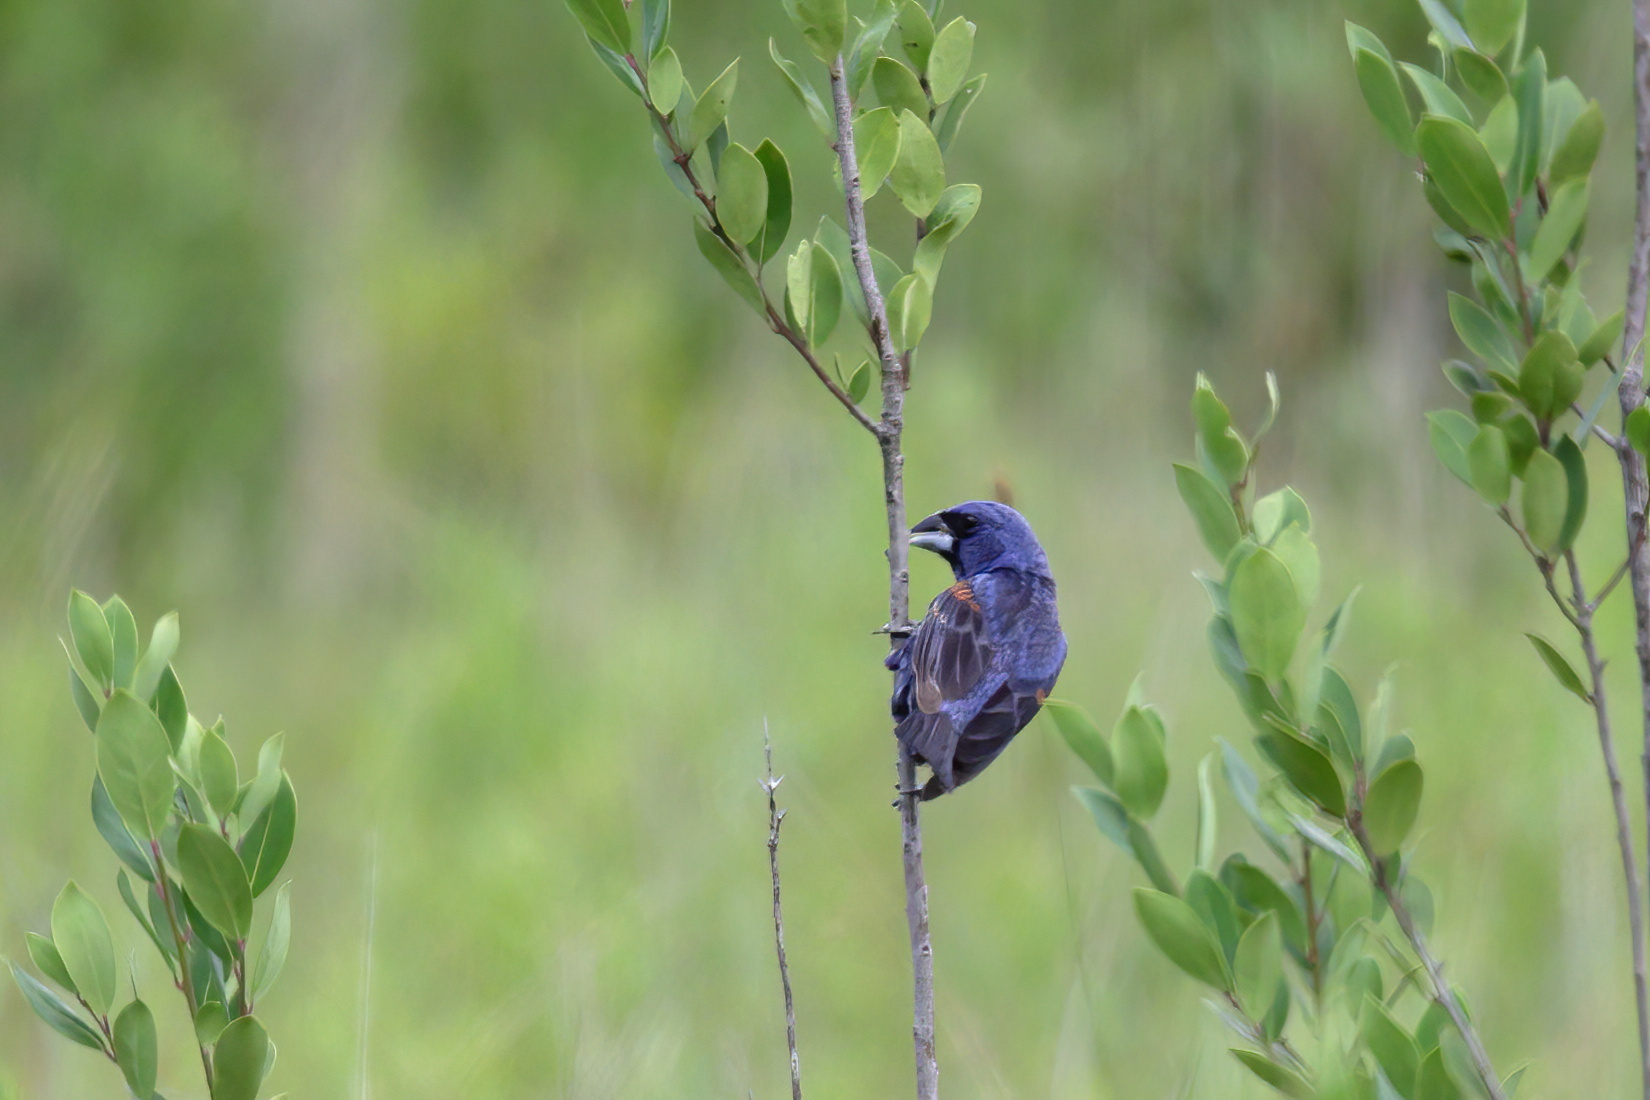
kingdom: Animalia
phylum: Chordata
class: Aves
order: Passeriformes
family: Cardinalidae
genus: Passerina
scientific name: Passerina caerulea
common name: Blue grosbeak
